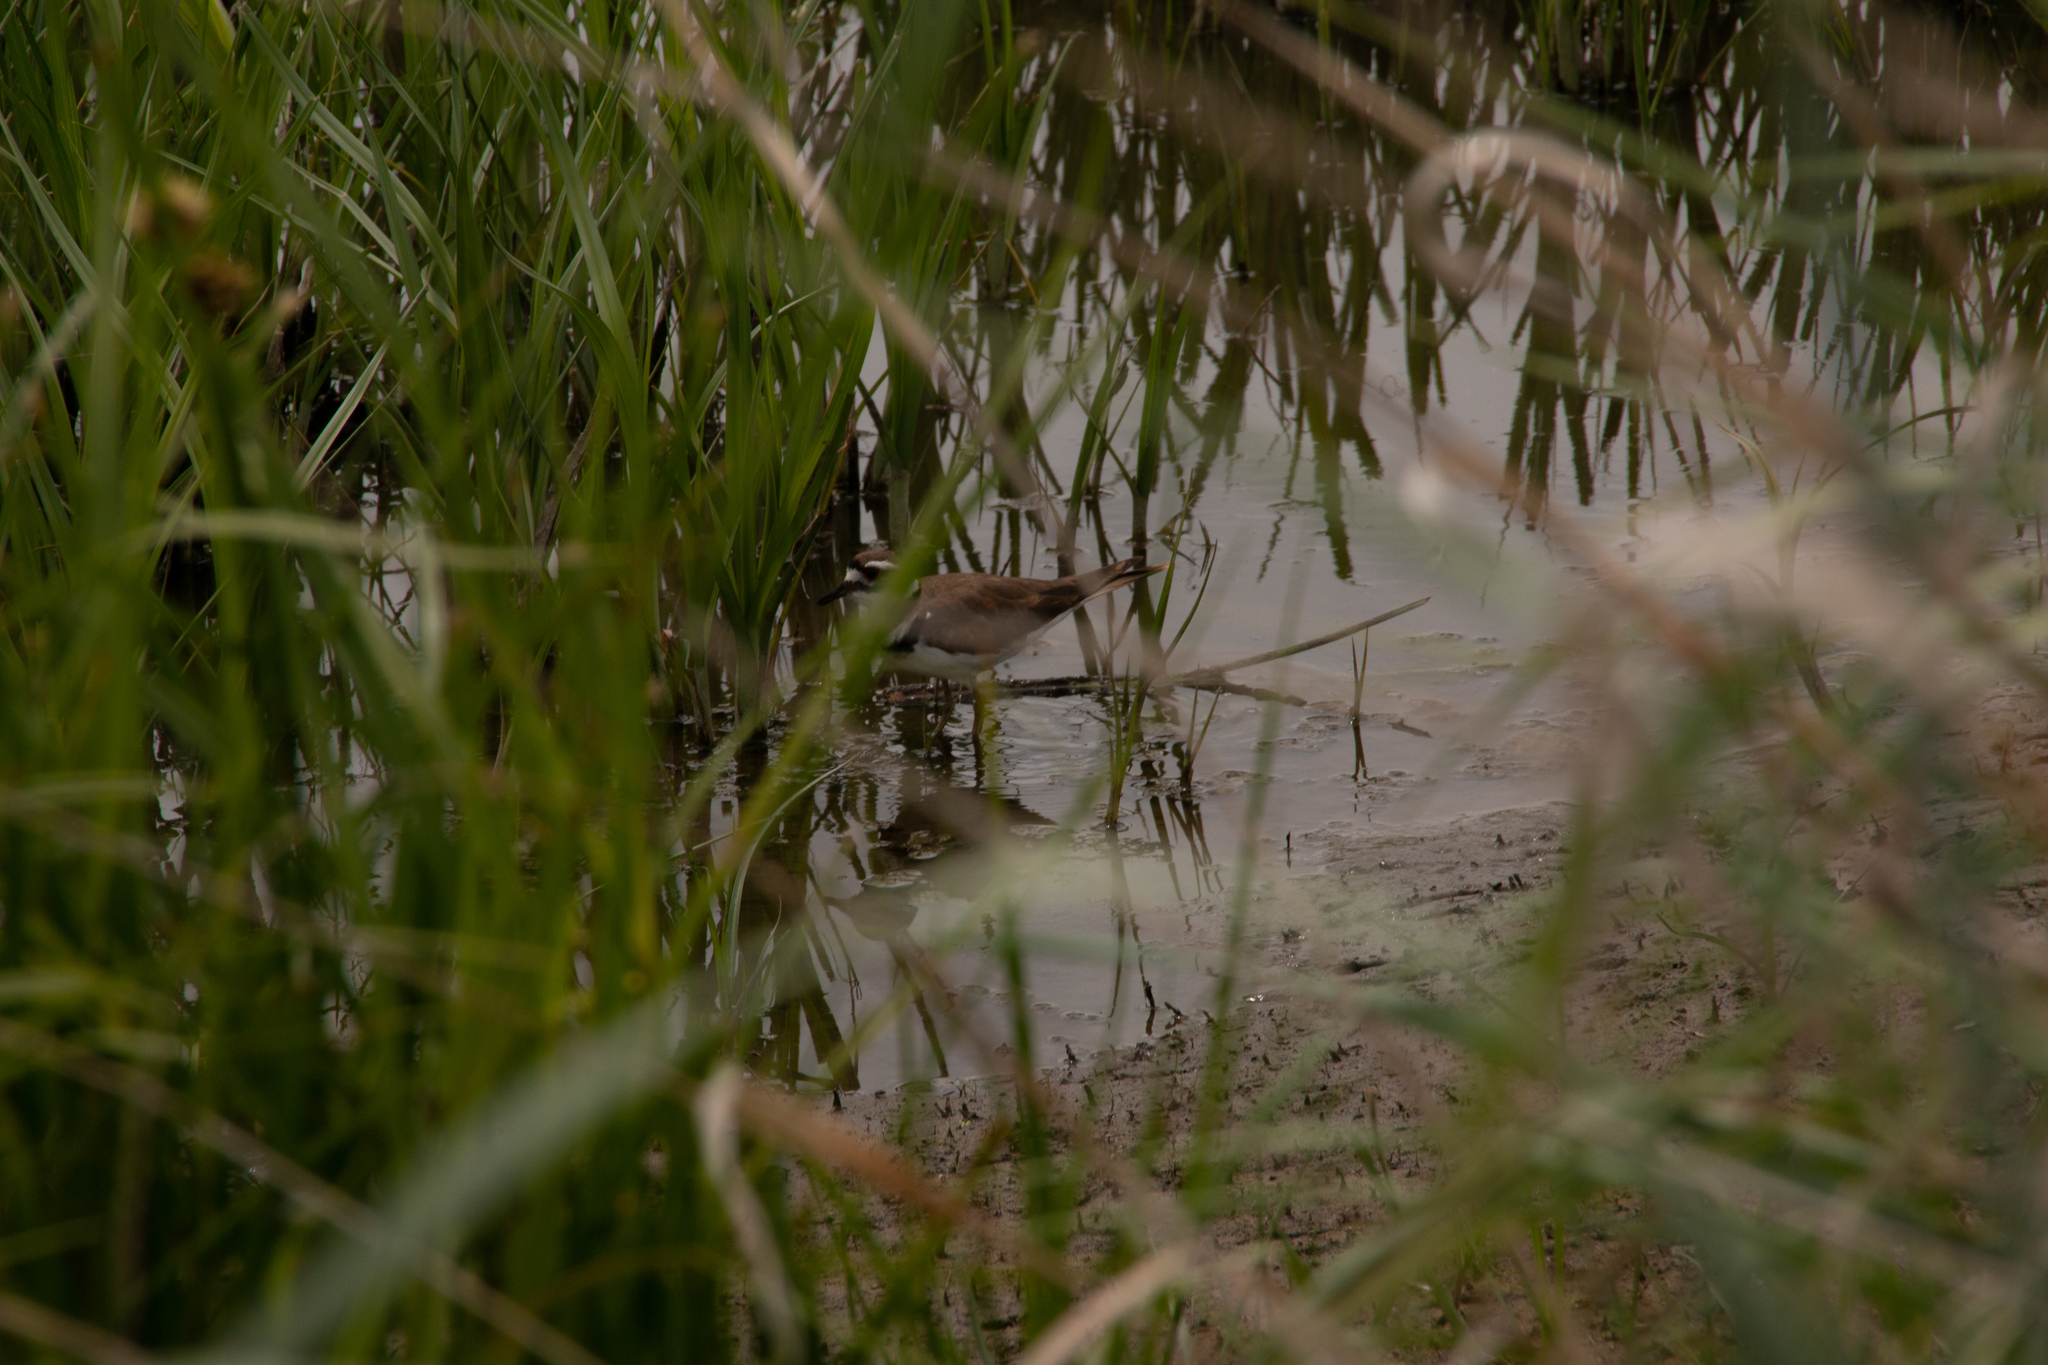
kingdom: Animalia
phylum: Chordata
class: Aves
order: Charadriiformes
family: Charadriidae
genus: Charadrius
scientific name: Charadrius vociferus
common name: Killdeer
